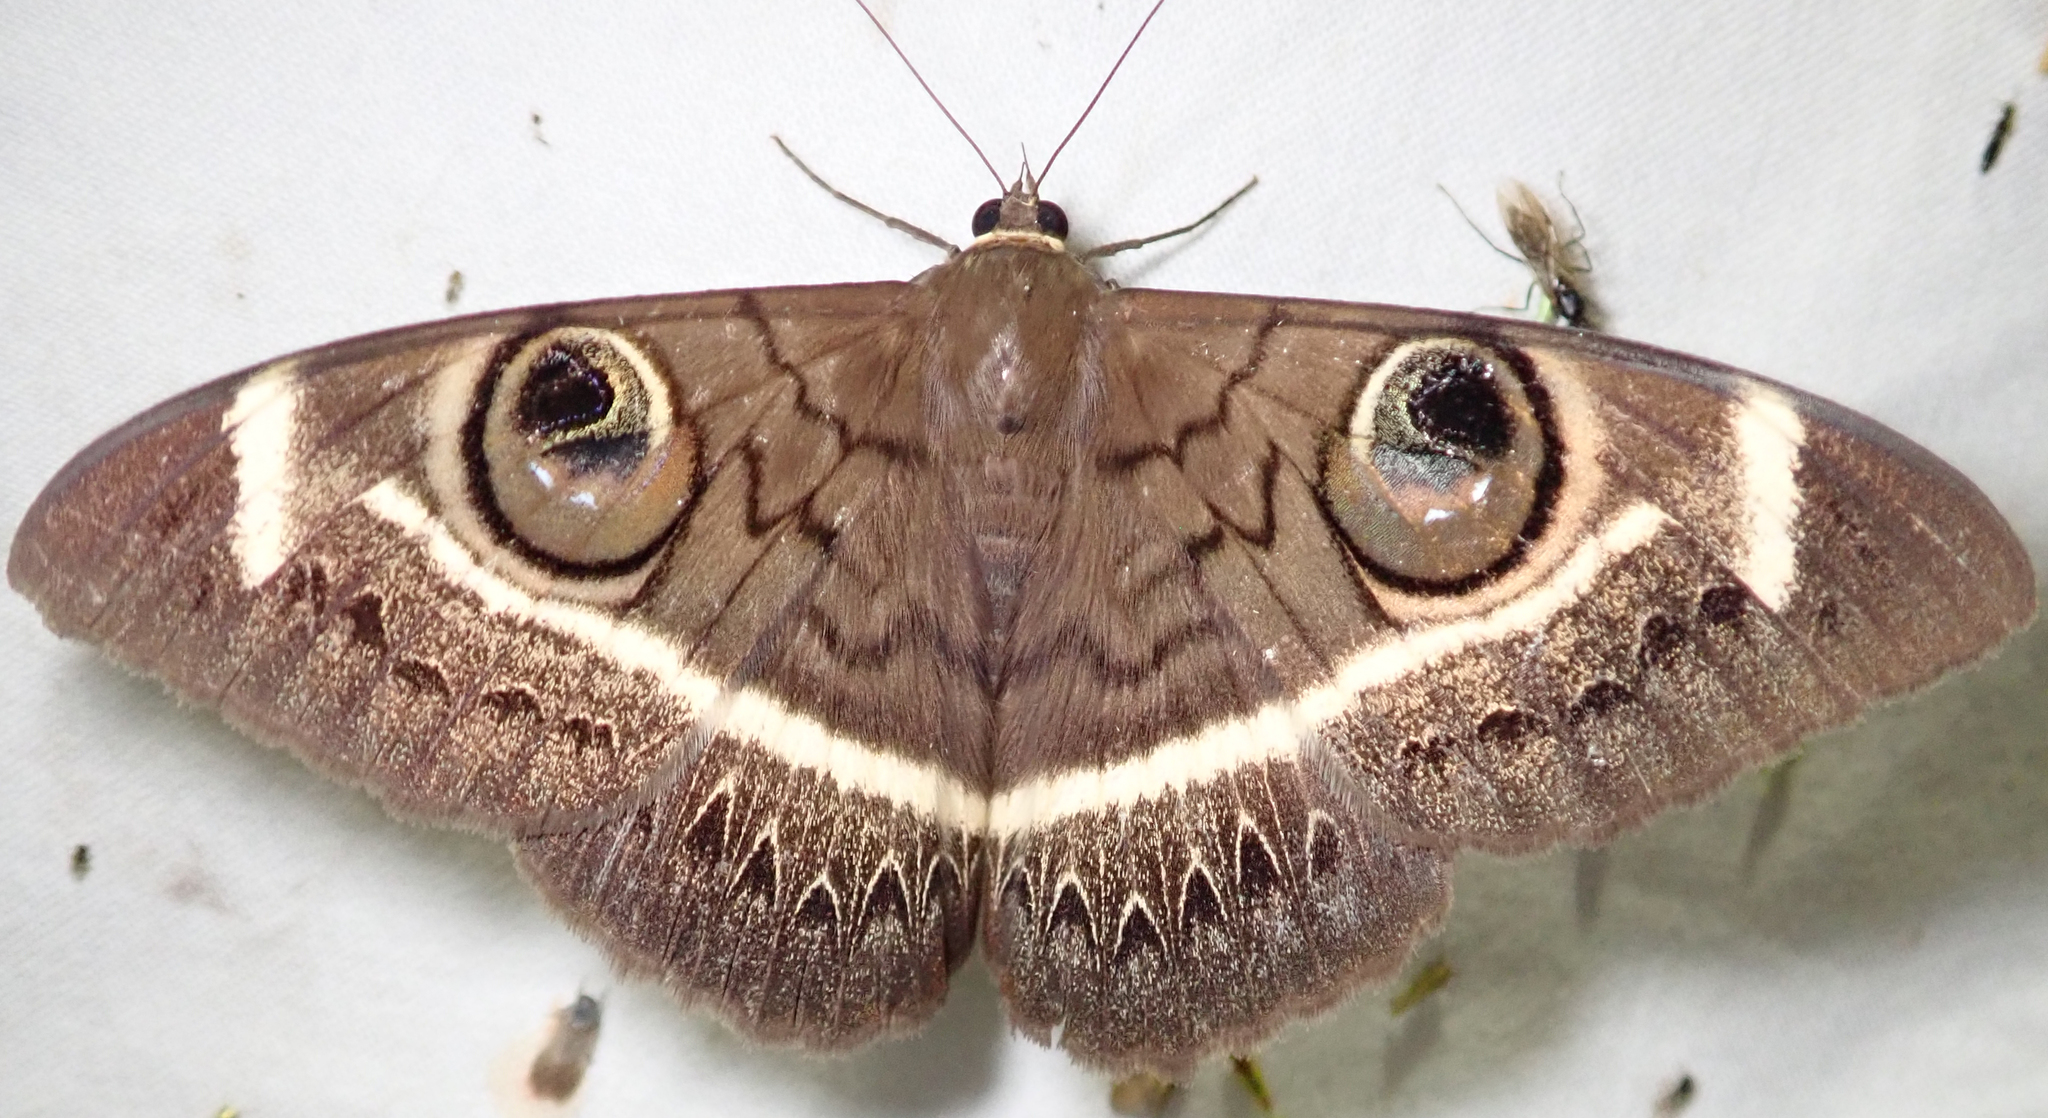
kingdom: Animalia
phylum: Arthropoda
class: Insecta
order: Lepidoptera
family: Erebidae
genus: Cyligramma
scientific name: Cyligramma latona
